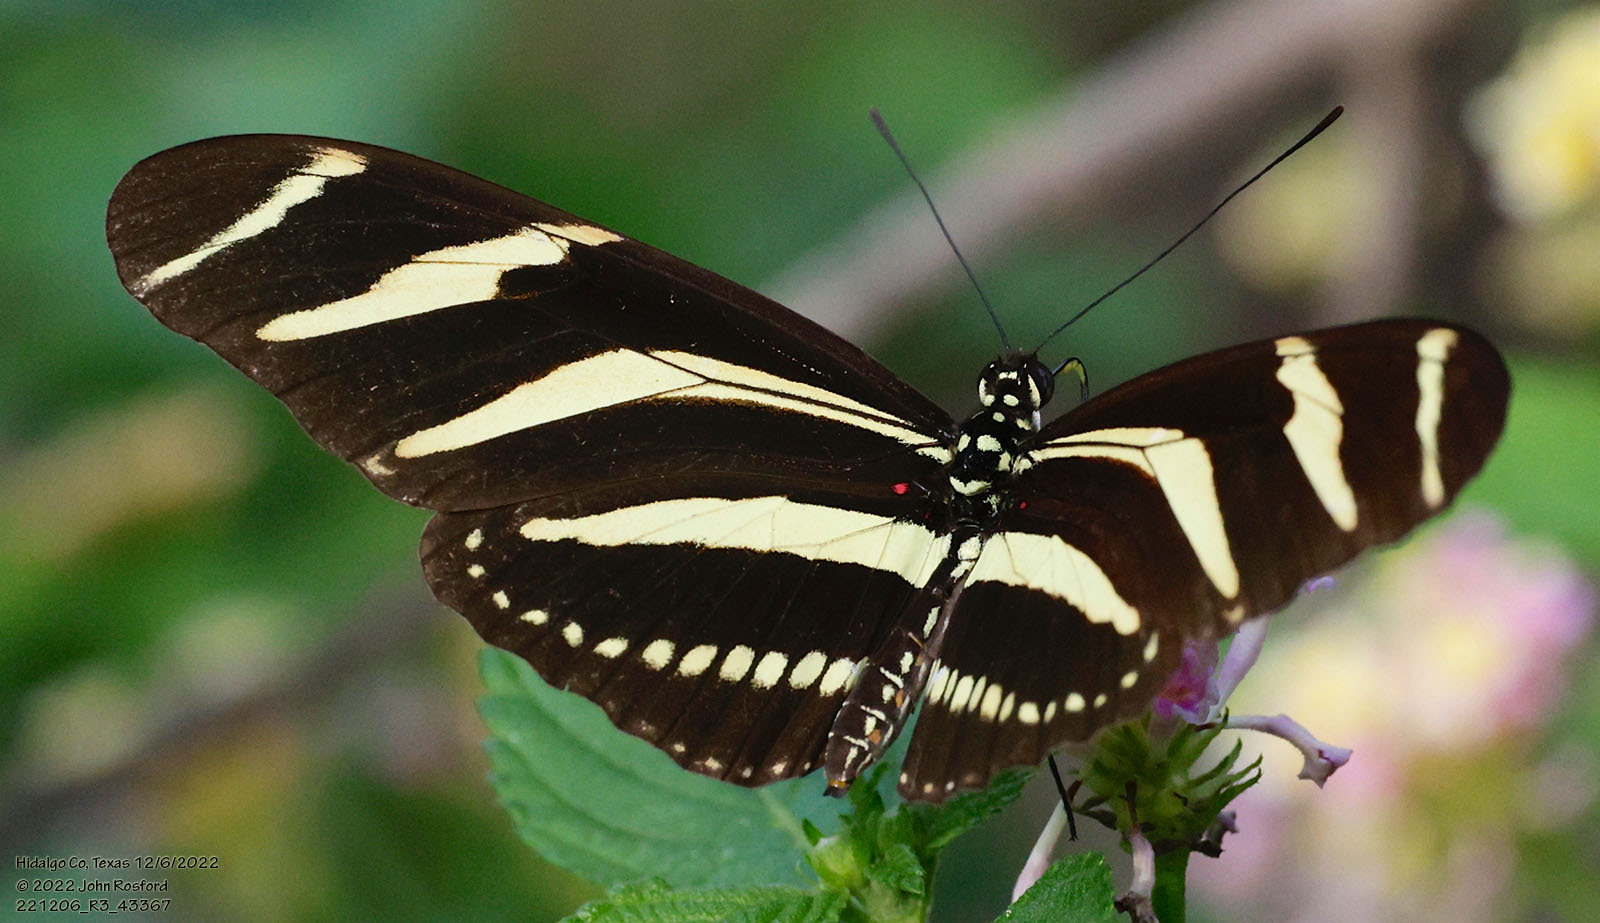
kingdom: Animalia
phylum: Arthropoda
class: Insecta
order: Lepidoptera
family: Nymphalidae
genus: Heliconius
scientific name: Heliconius charithonia
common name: Zebra long wing
